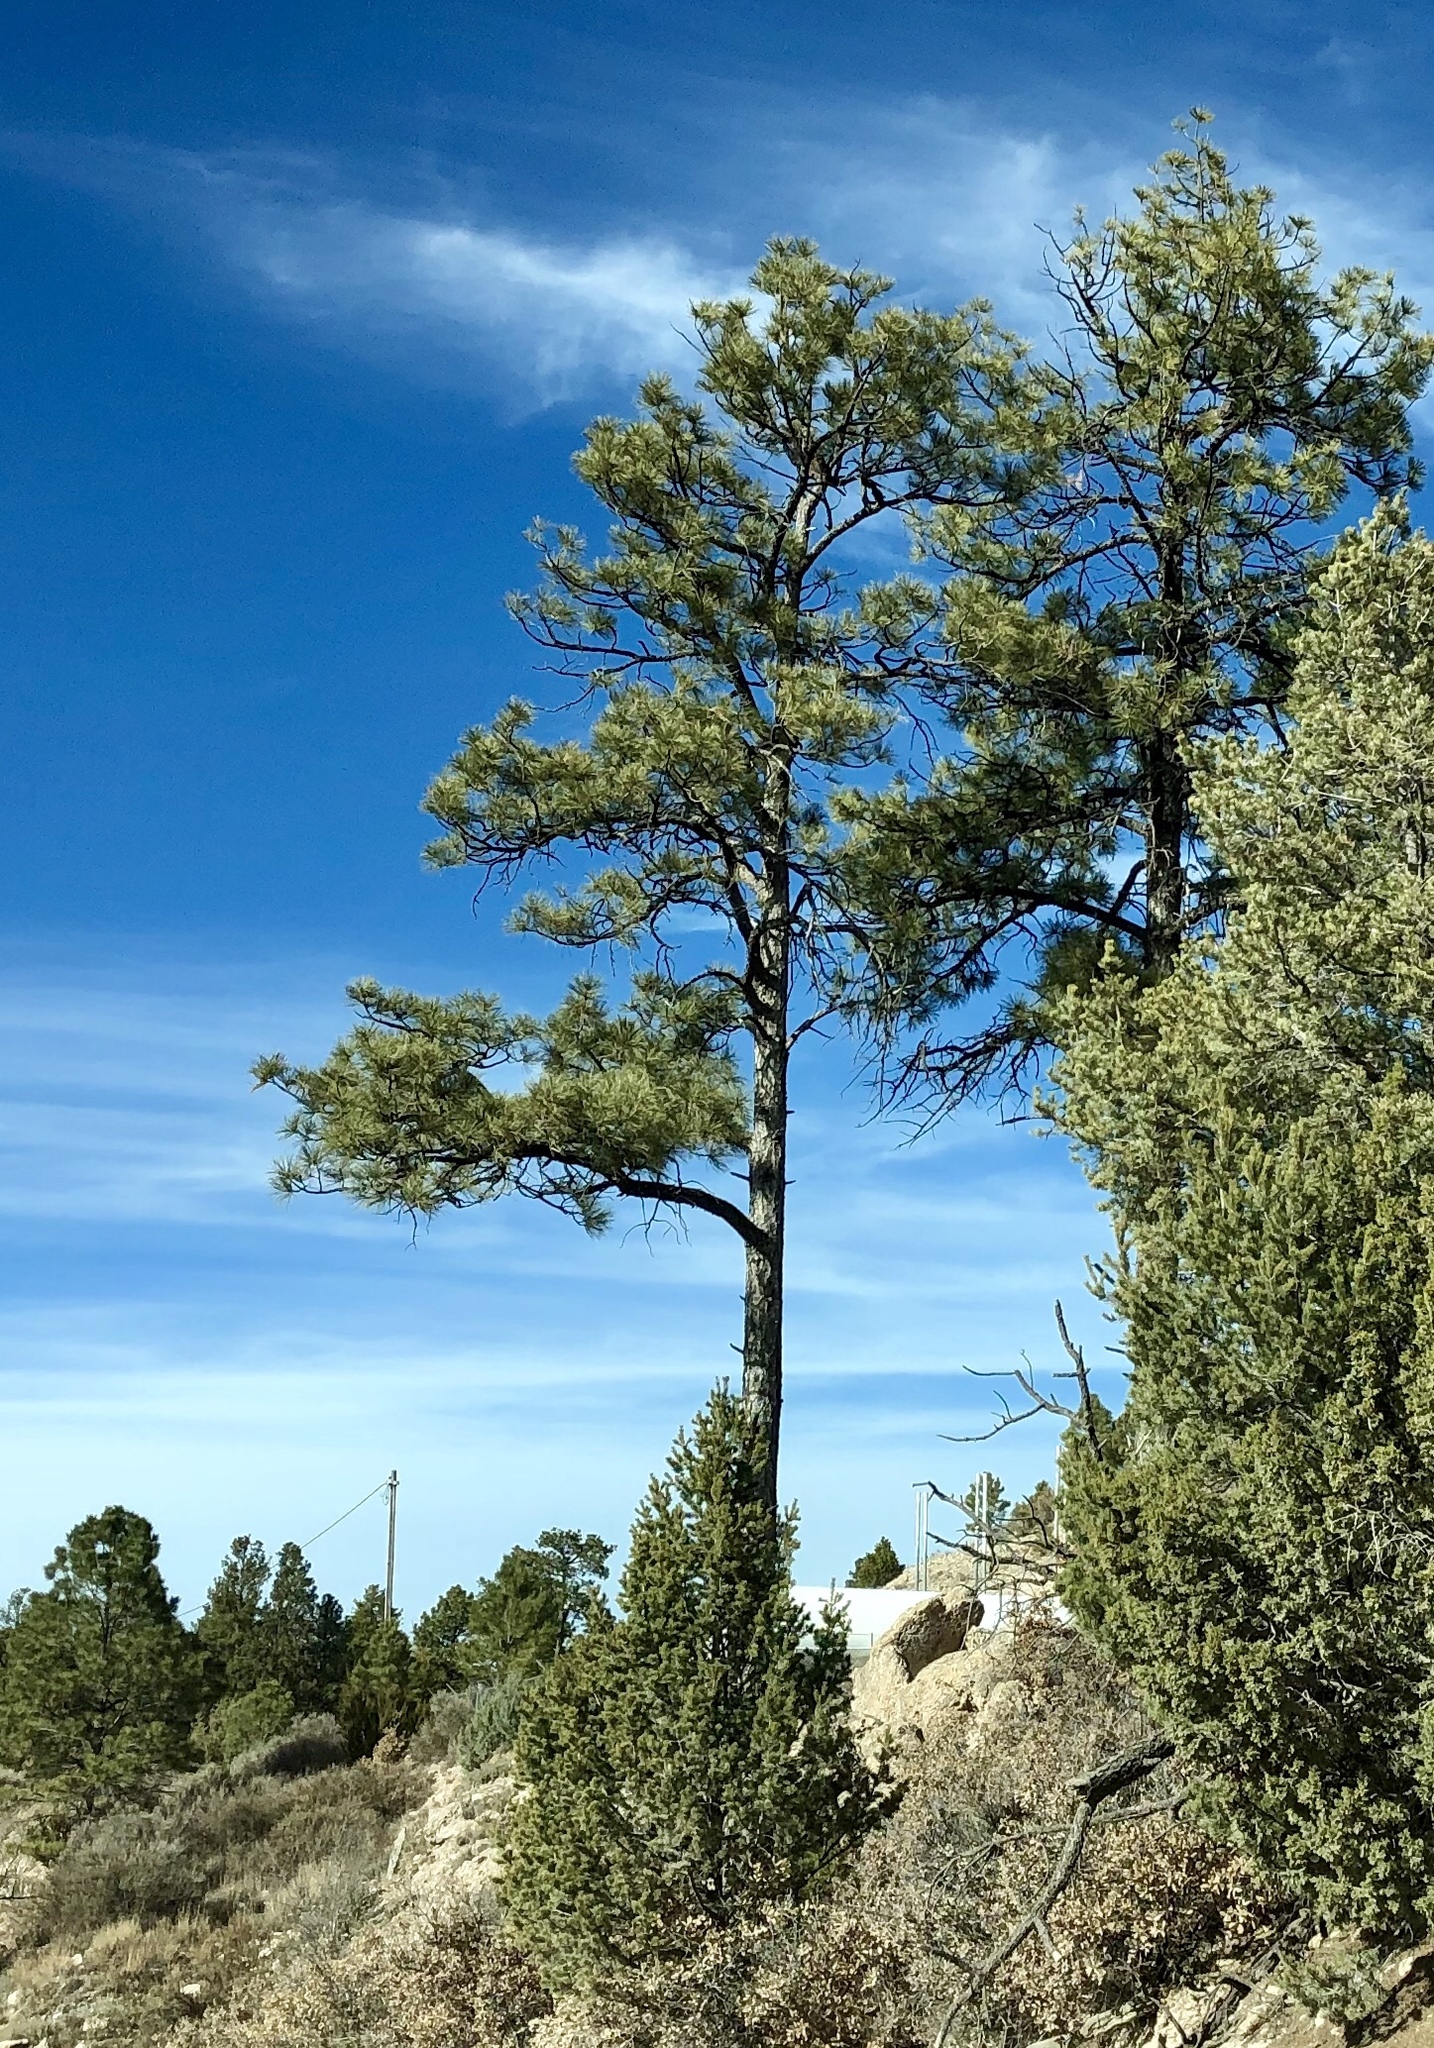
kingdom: Plantae
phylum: Tracheophyta
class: Pinopsida
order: Pinales
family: Pinaceae
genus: Pinus
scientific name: Pinus ponderosa
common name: Western yellow-pine
